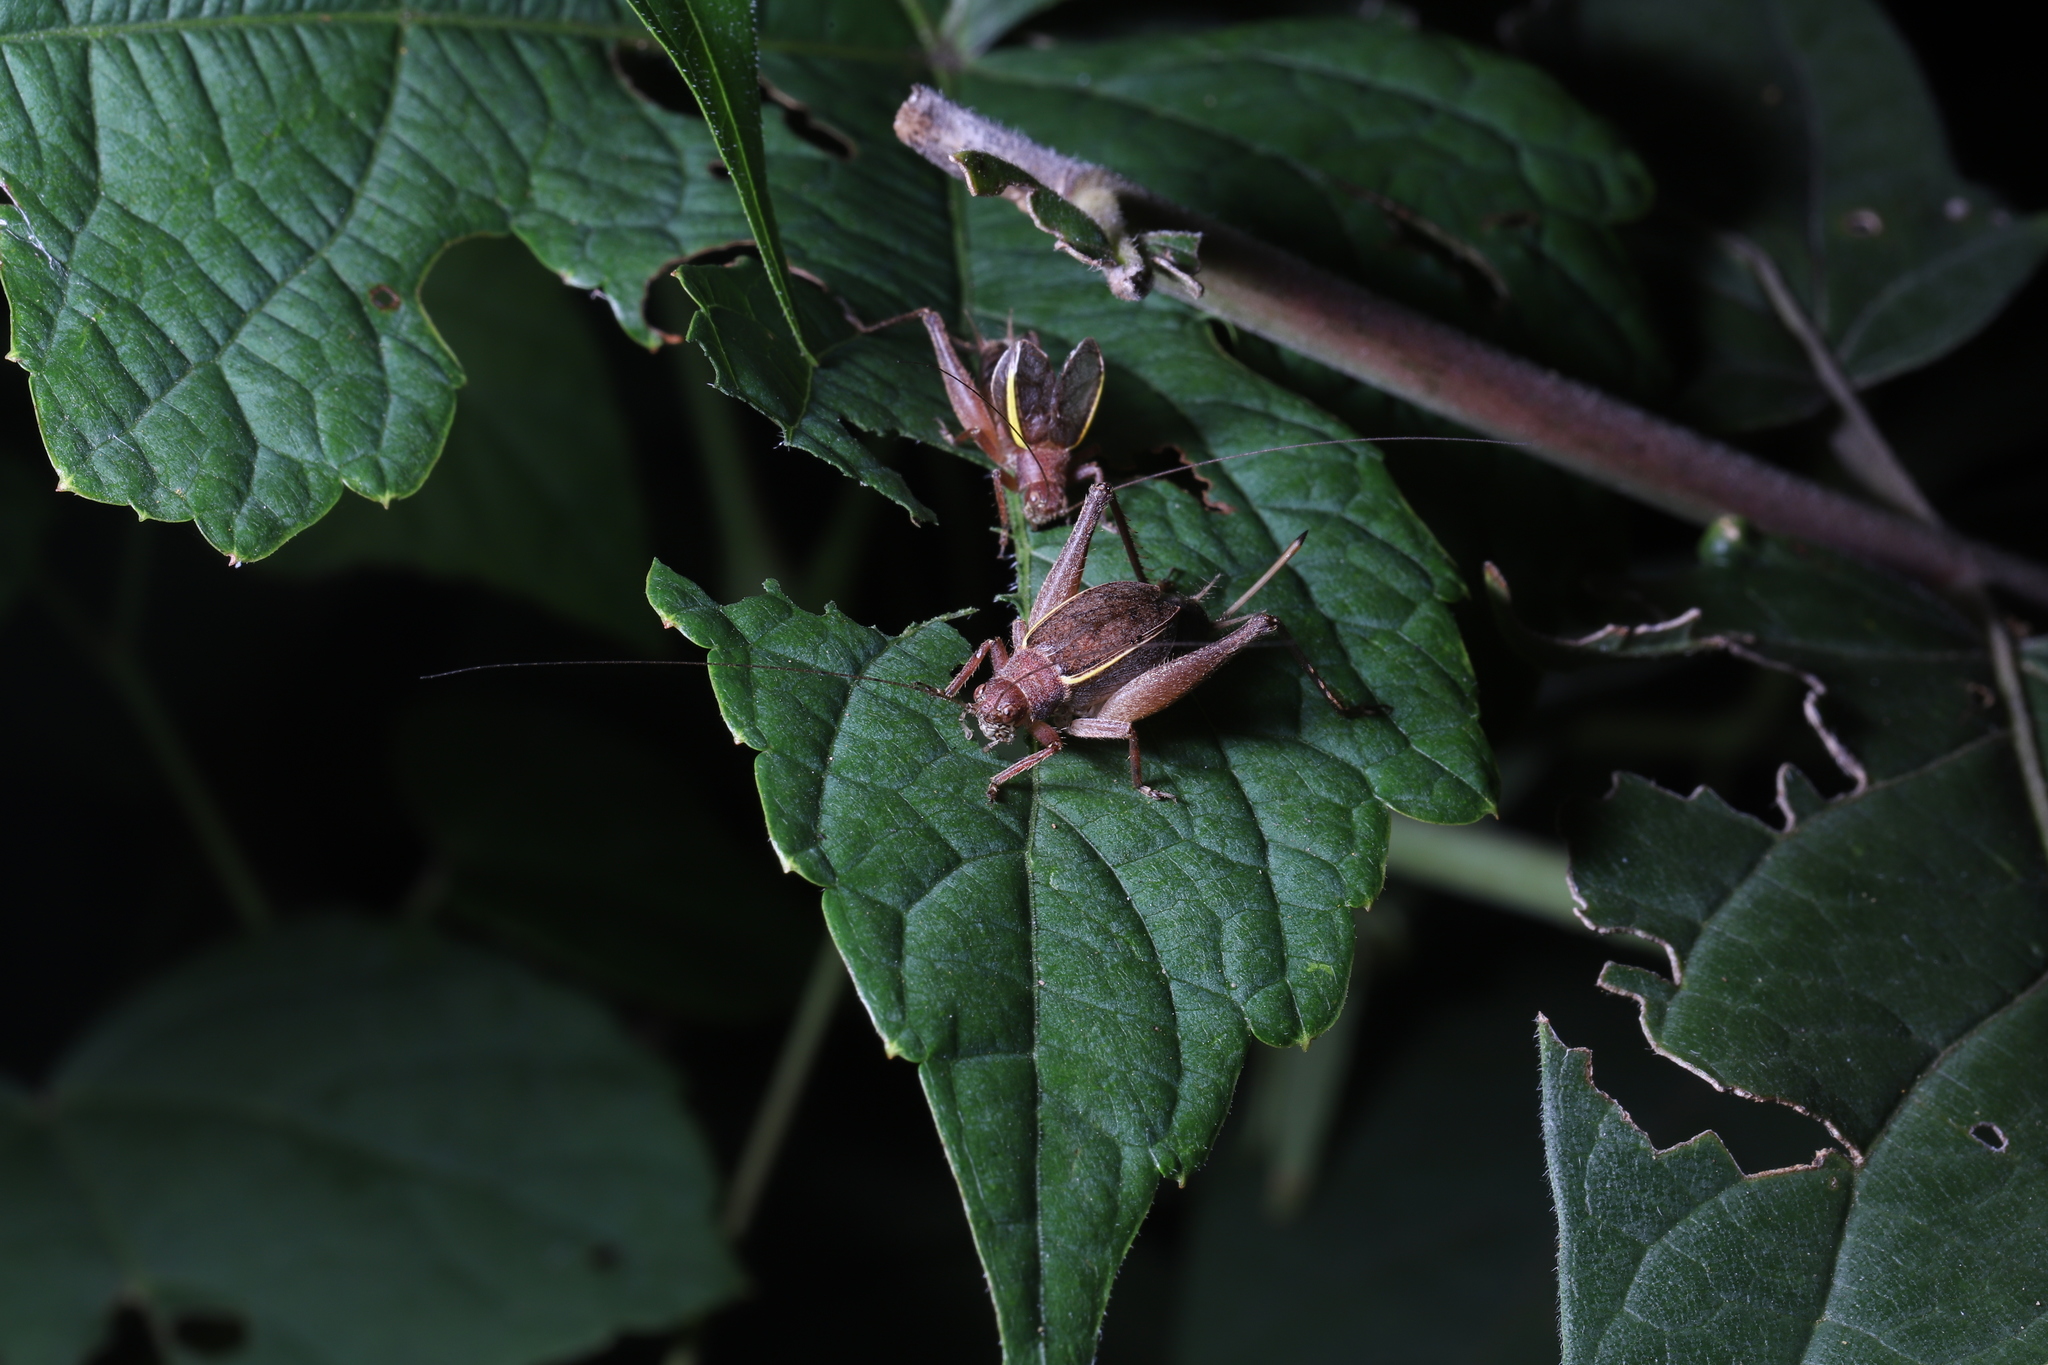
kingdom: Animalia
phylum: Arthropoda
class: Insecta
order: Orthoptera
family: Gryllidae
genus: Hapithus
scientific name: Hapithus agitator
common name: Restless bush cricket
